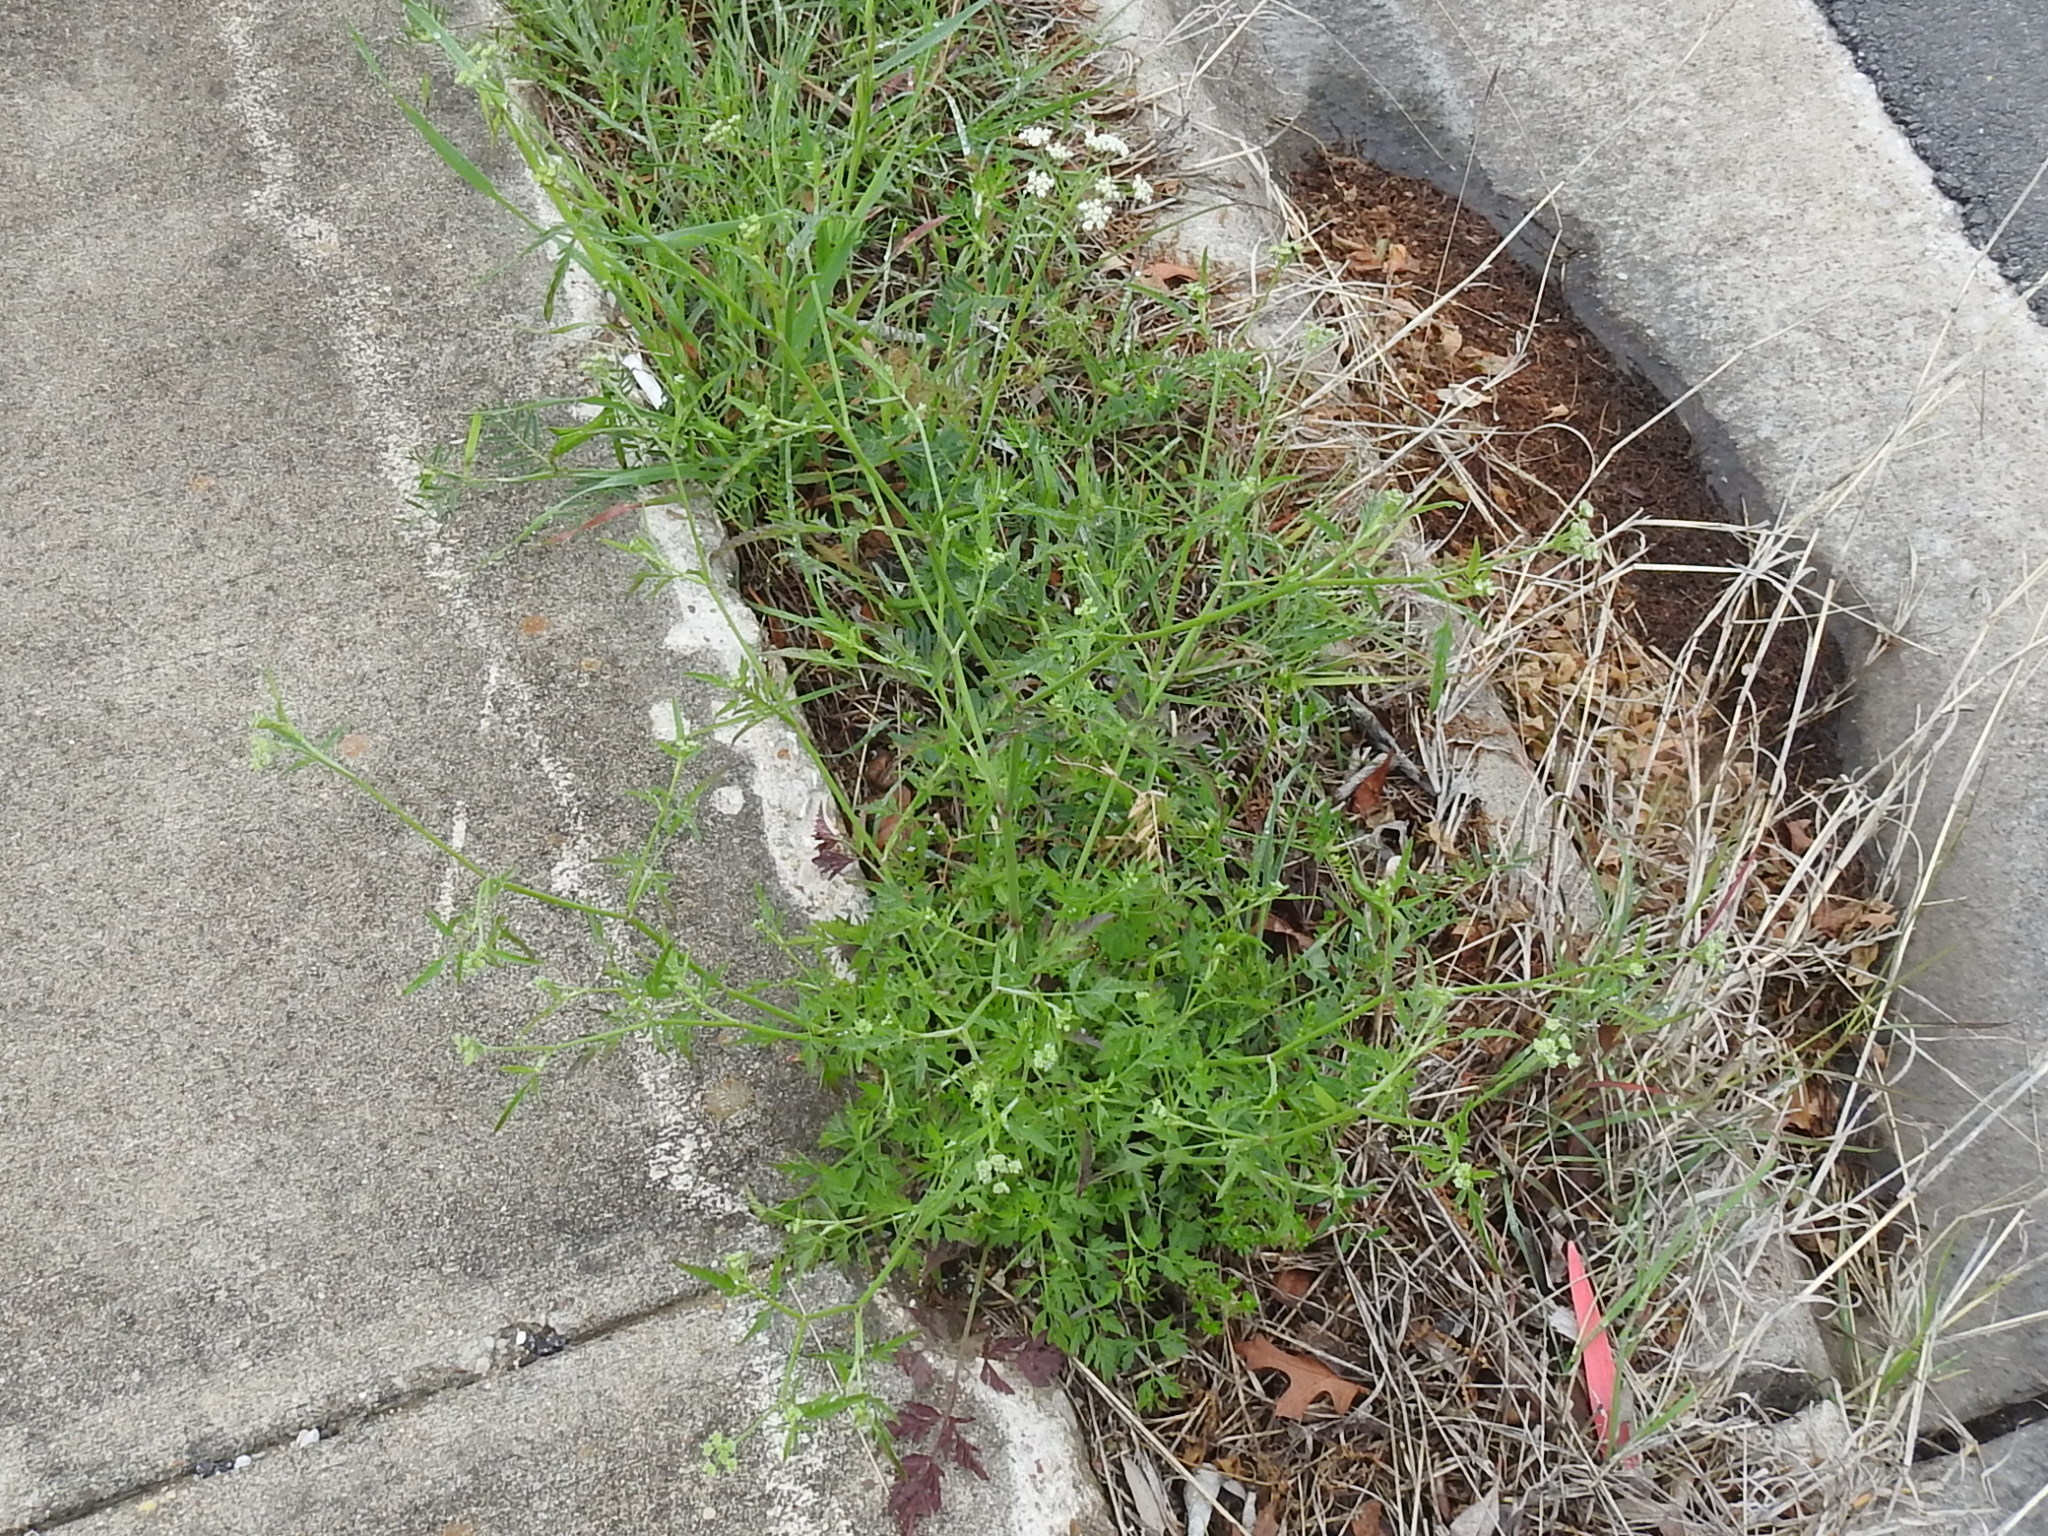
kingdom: Plantae
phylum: Tracheophyta
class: Magnoliopsida
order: Apiales
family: Apiaceae
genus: Torilis
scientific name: Torilis arvensis
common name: Spreading hedge-parsley
